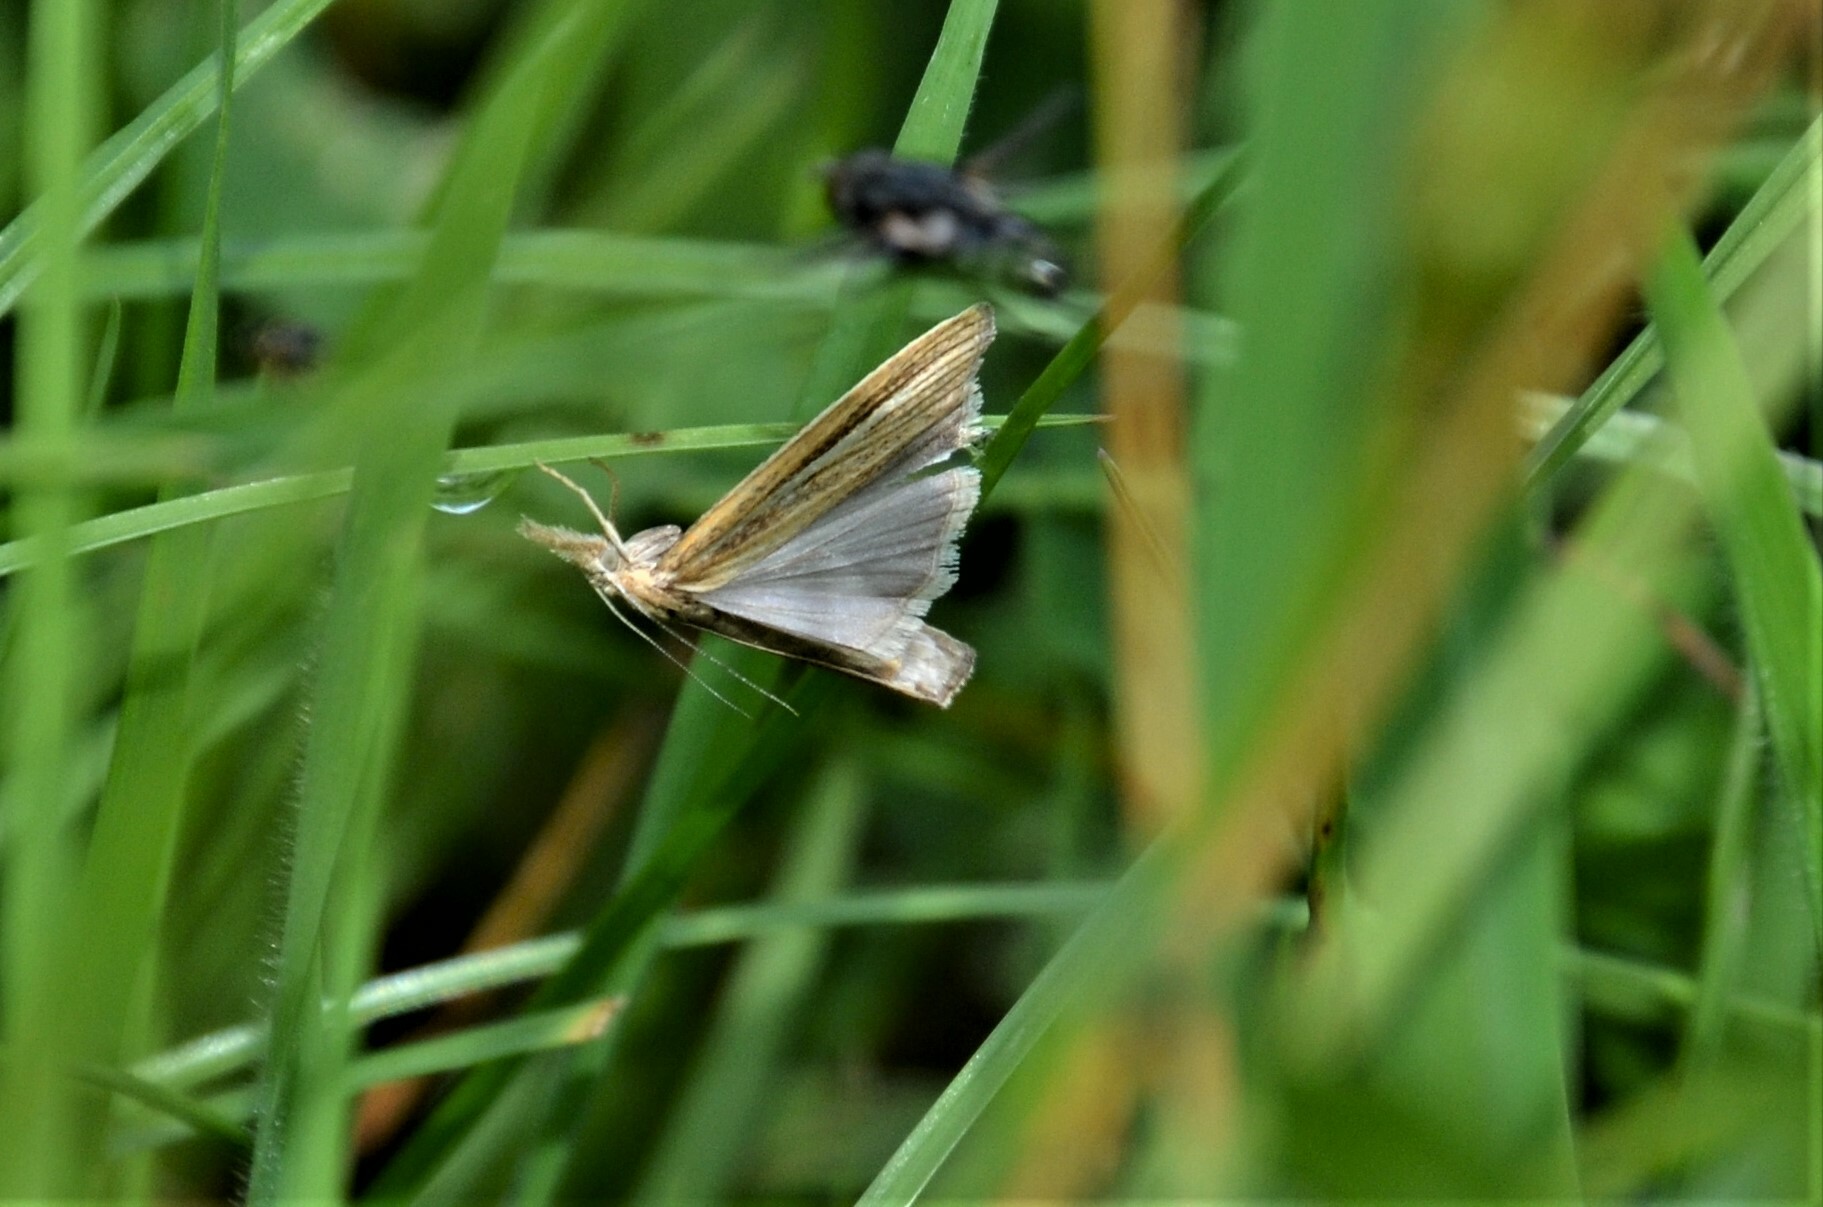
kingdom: Animalia
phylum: Arthropoda
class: Insecta
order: Lepidoptera
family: Crambidae
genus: Agriphila
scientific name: Agriphila tristellus
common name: Common grass-veneer
